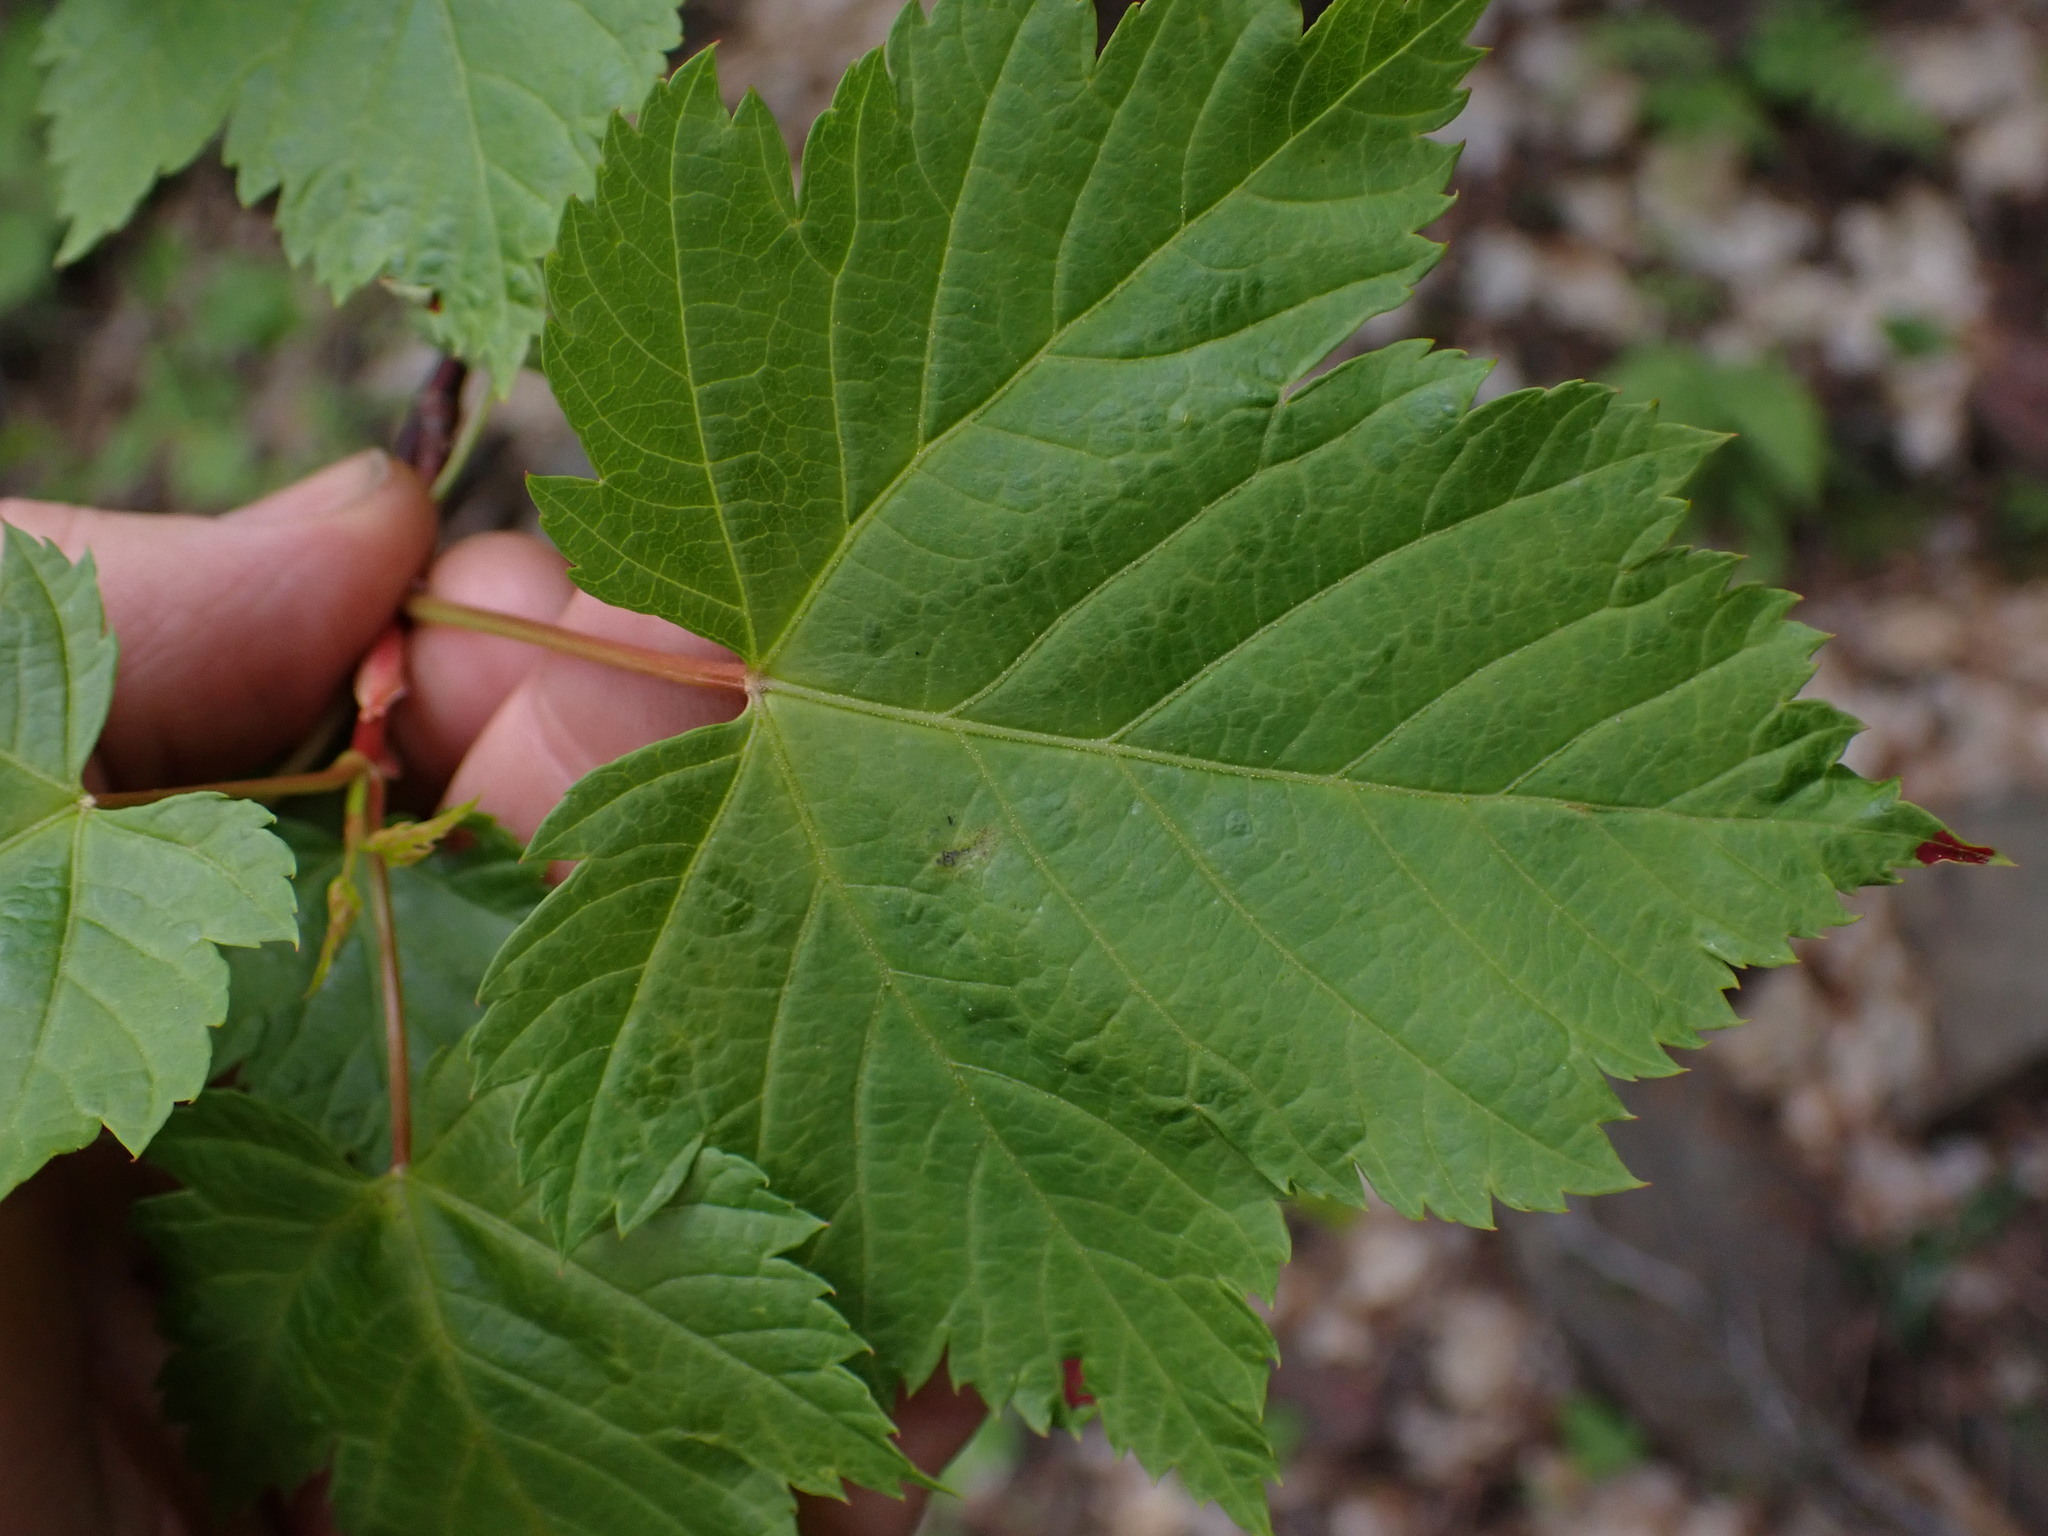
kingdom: Plantae
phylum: Tracheophyta
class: Magnoliopsida
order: Sapindales
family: Sapindaceae
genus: Acer
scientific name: Acer glabrum
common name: Rocky mountain maple
